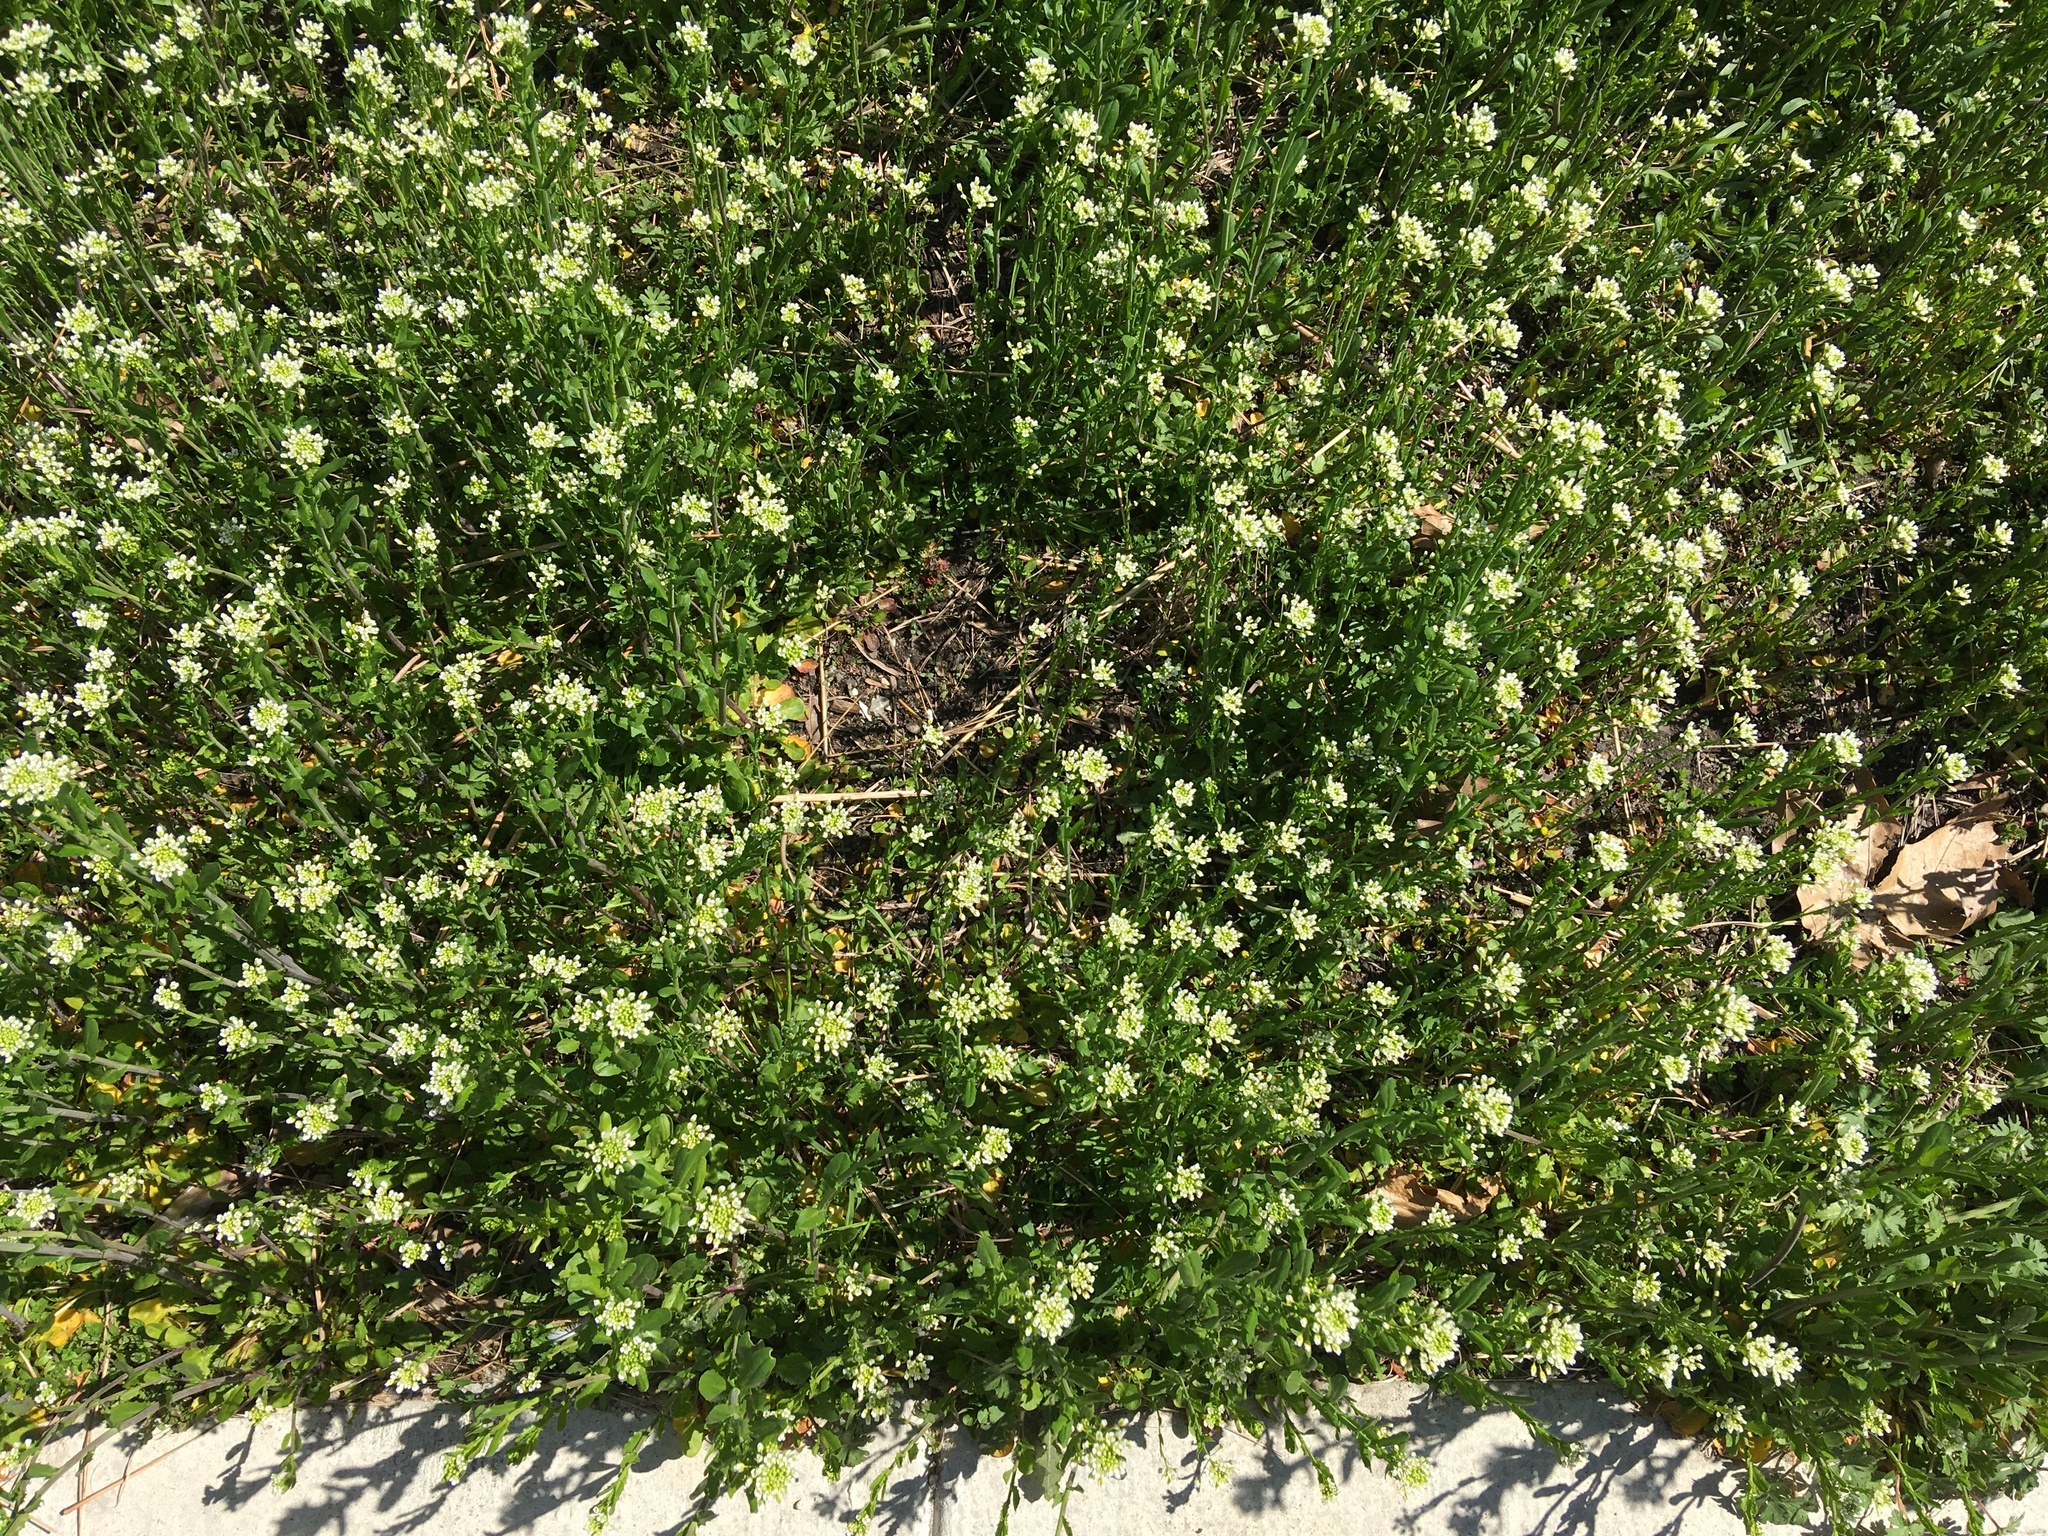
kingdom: Plantae
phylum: Tracheophyta
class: Magnoliopsida
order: Brassicales
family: Brassicaceae
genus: Mummenhoffia
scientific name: Mummenhoffia alliacea
